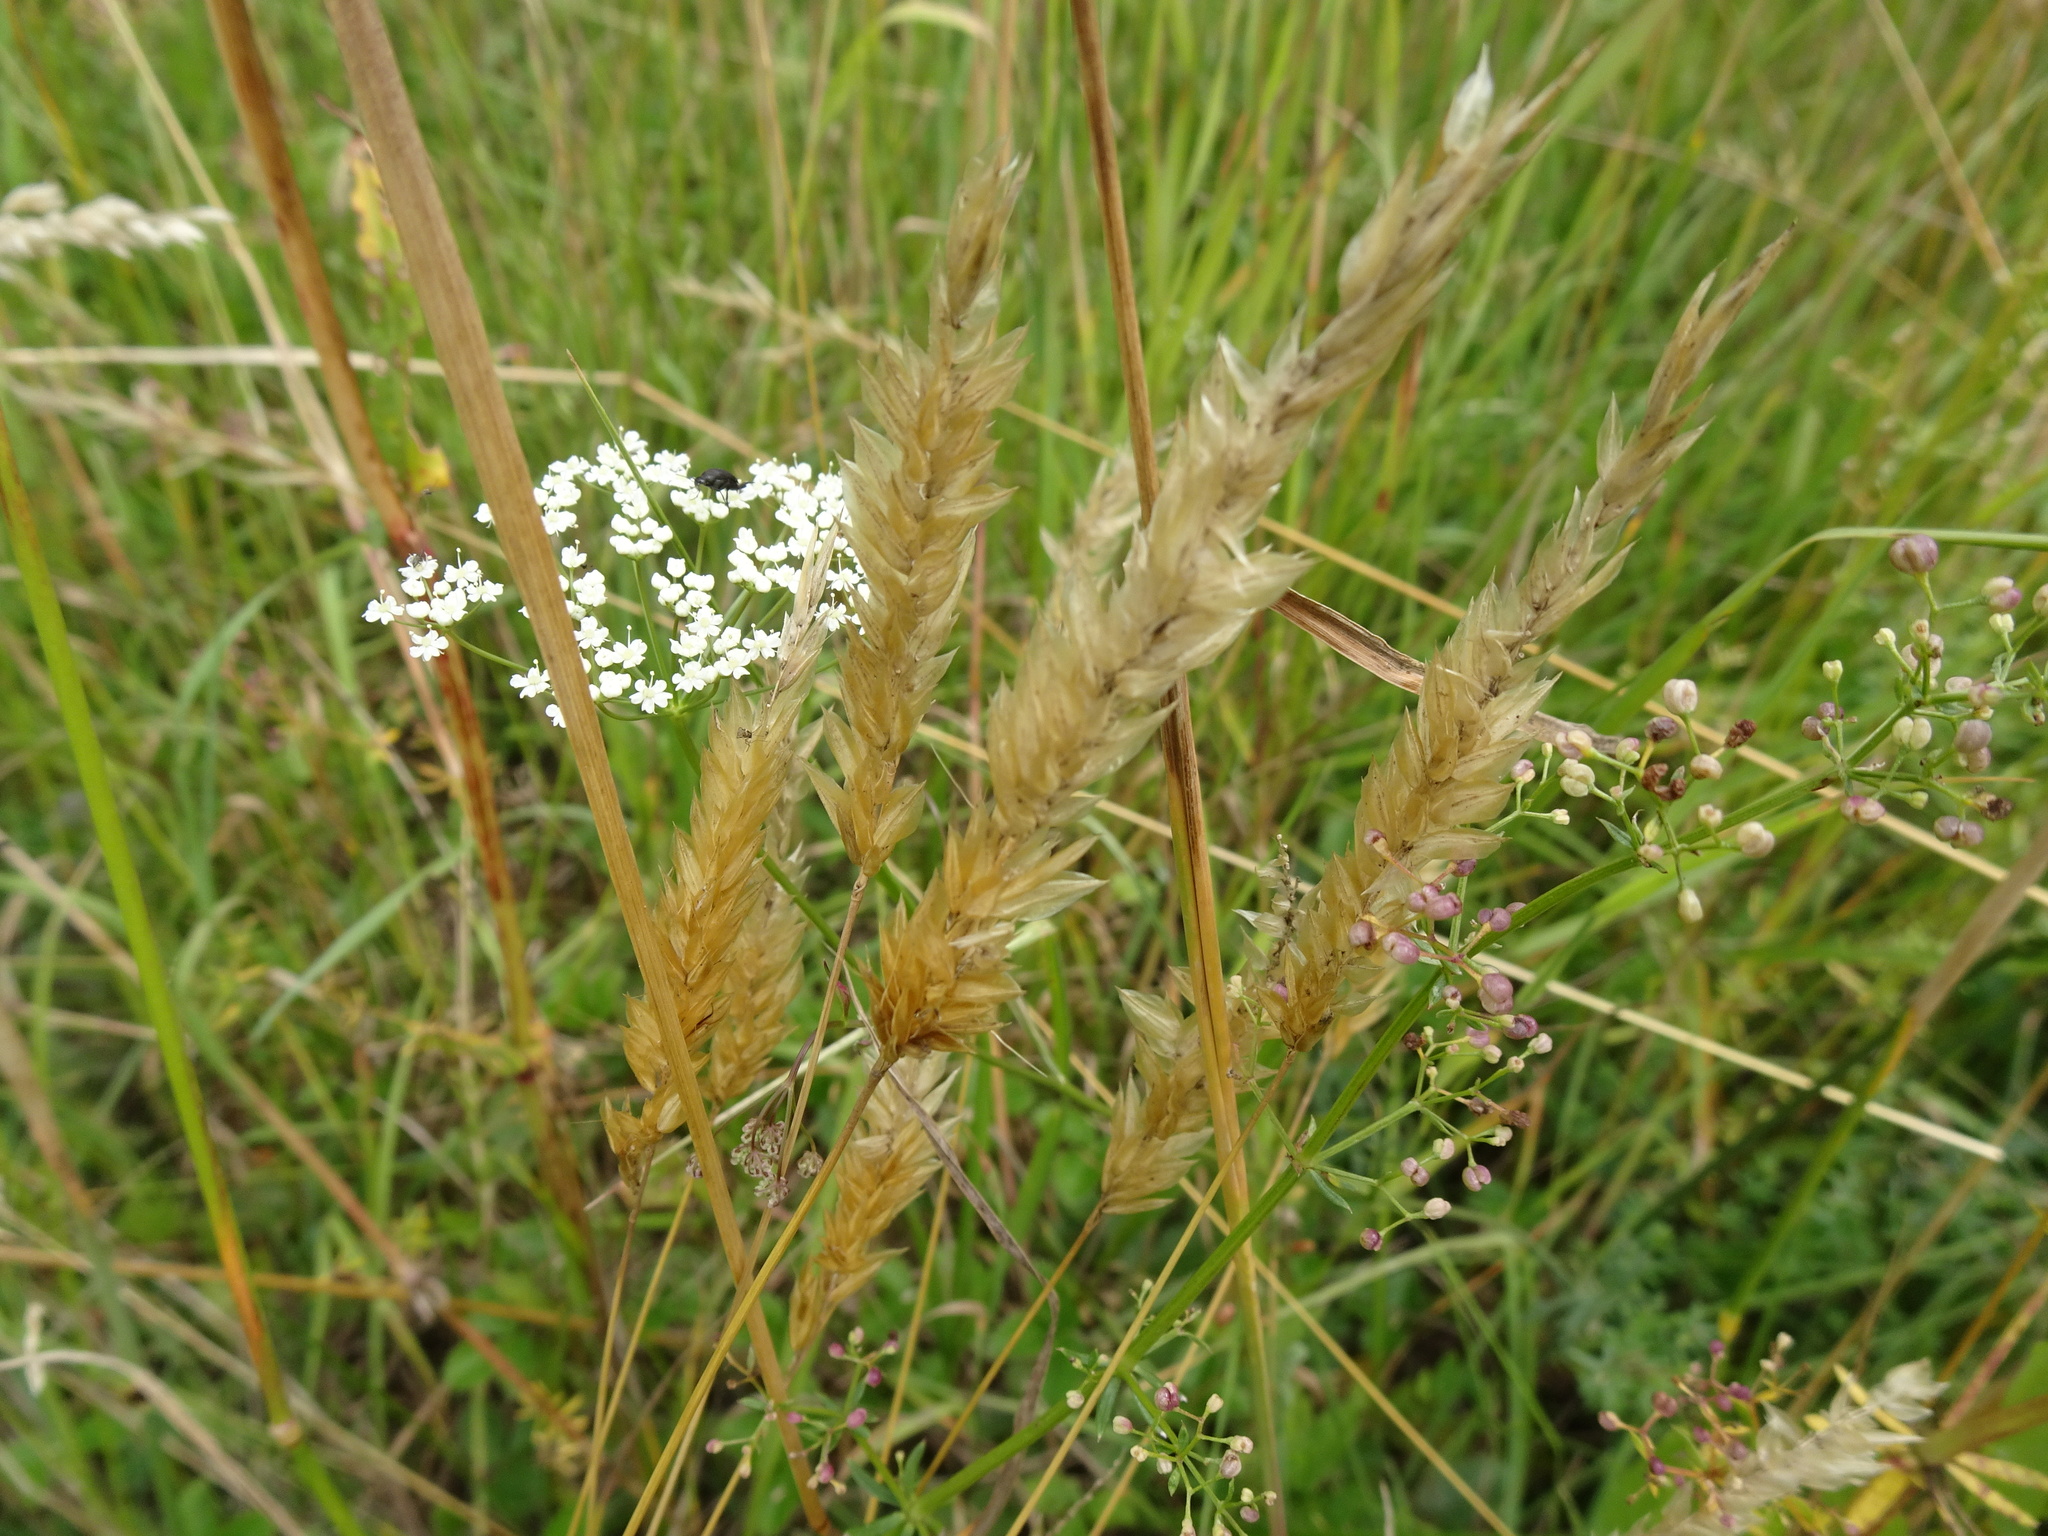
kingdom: Plantae
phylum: Tracheophyta
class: Liliopsida
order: Poales
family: Poaceae
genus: Anthoxanthum
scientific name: Anthoxanthum odoratum
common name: Sweet vernalgrass
